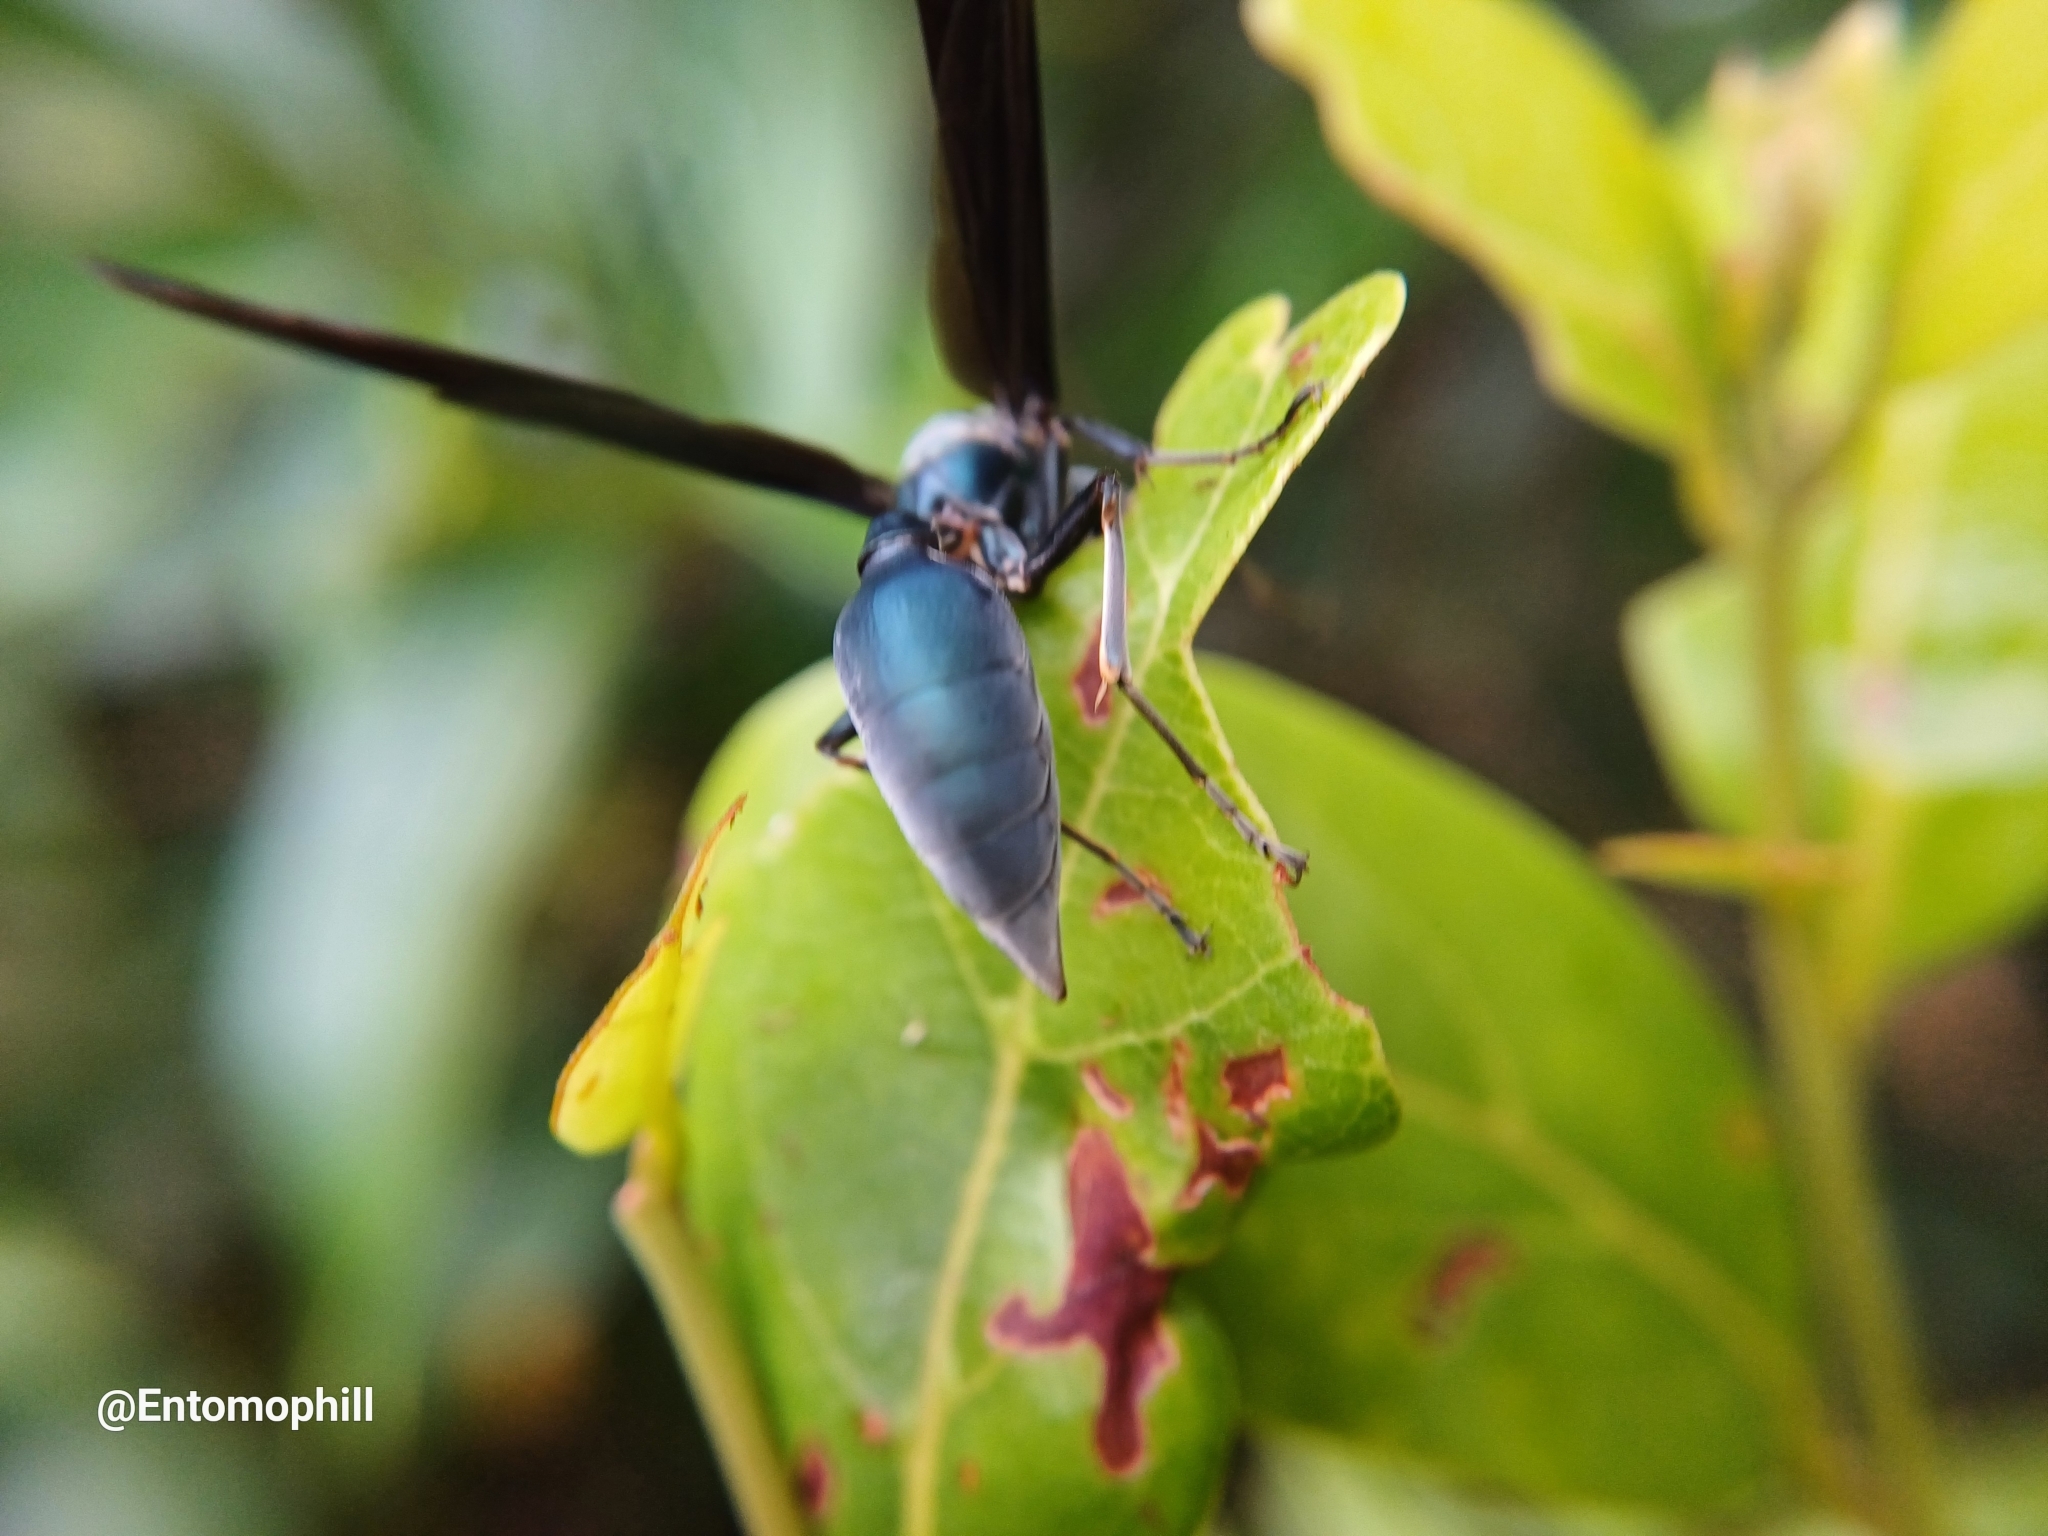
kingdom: Animalia
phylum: Arthropoda
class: Insecta
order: Hymenoptera
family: Vespidae
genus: Synoeca
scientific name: Synoeca cyanea
